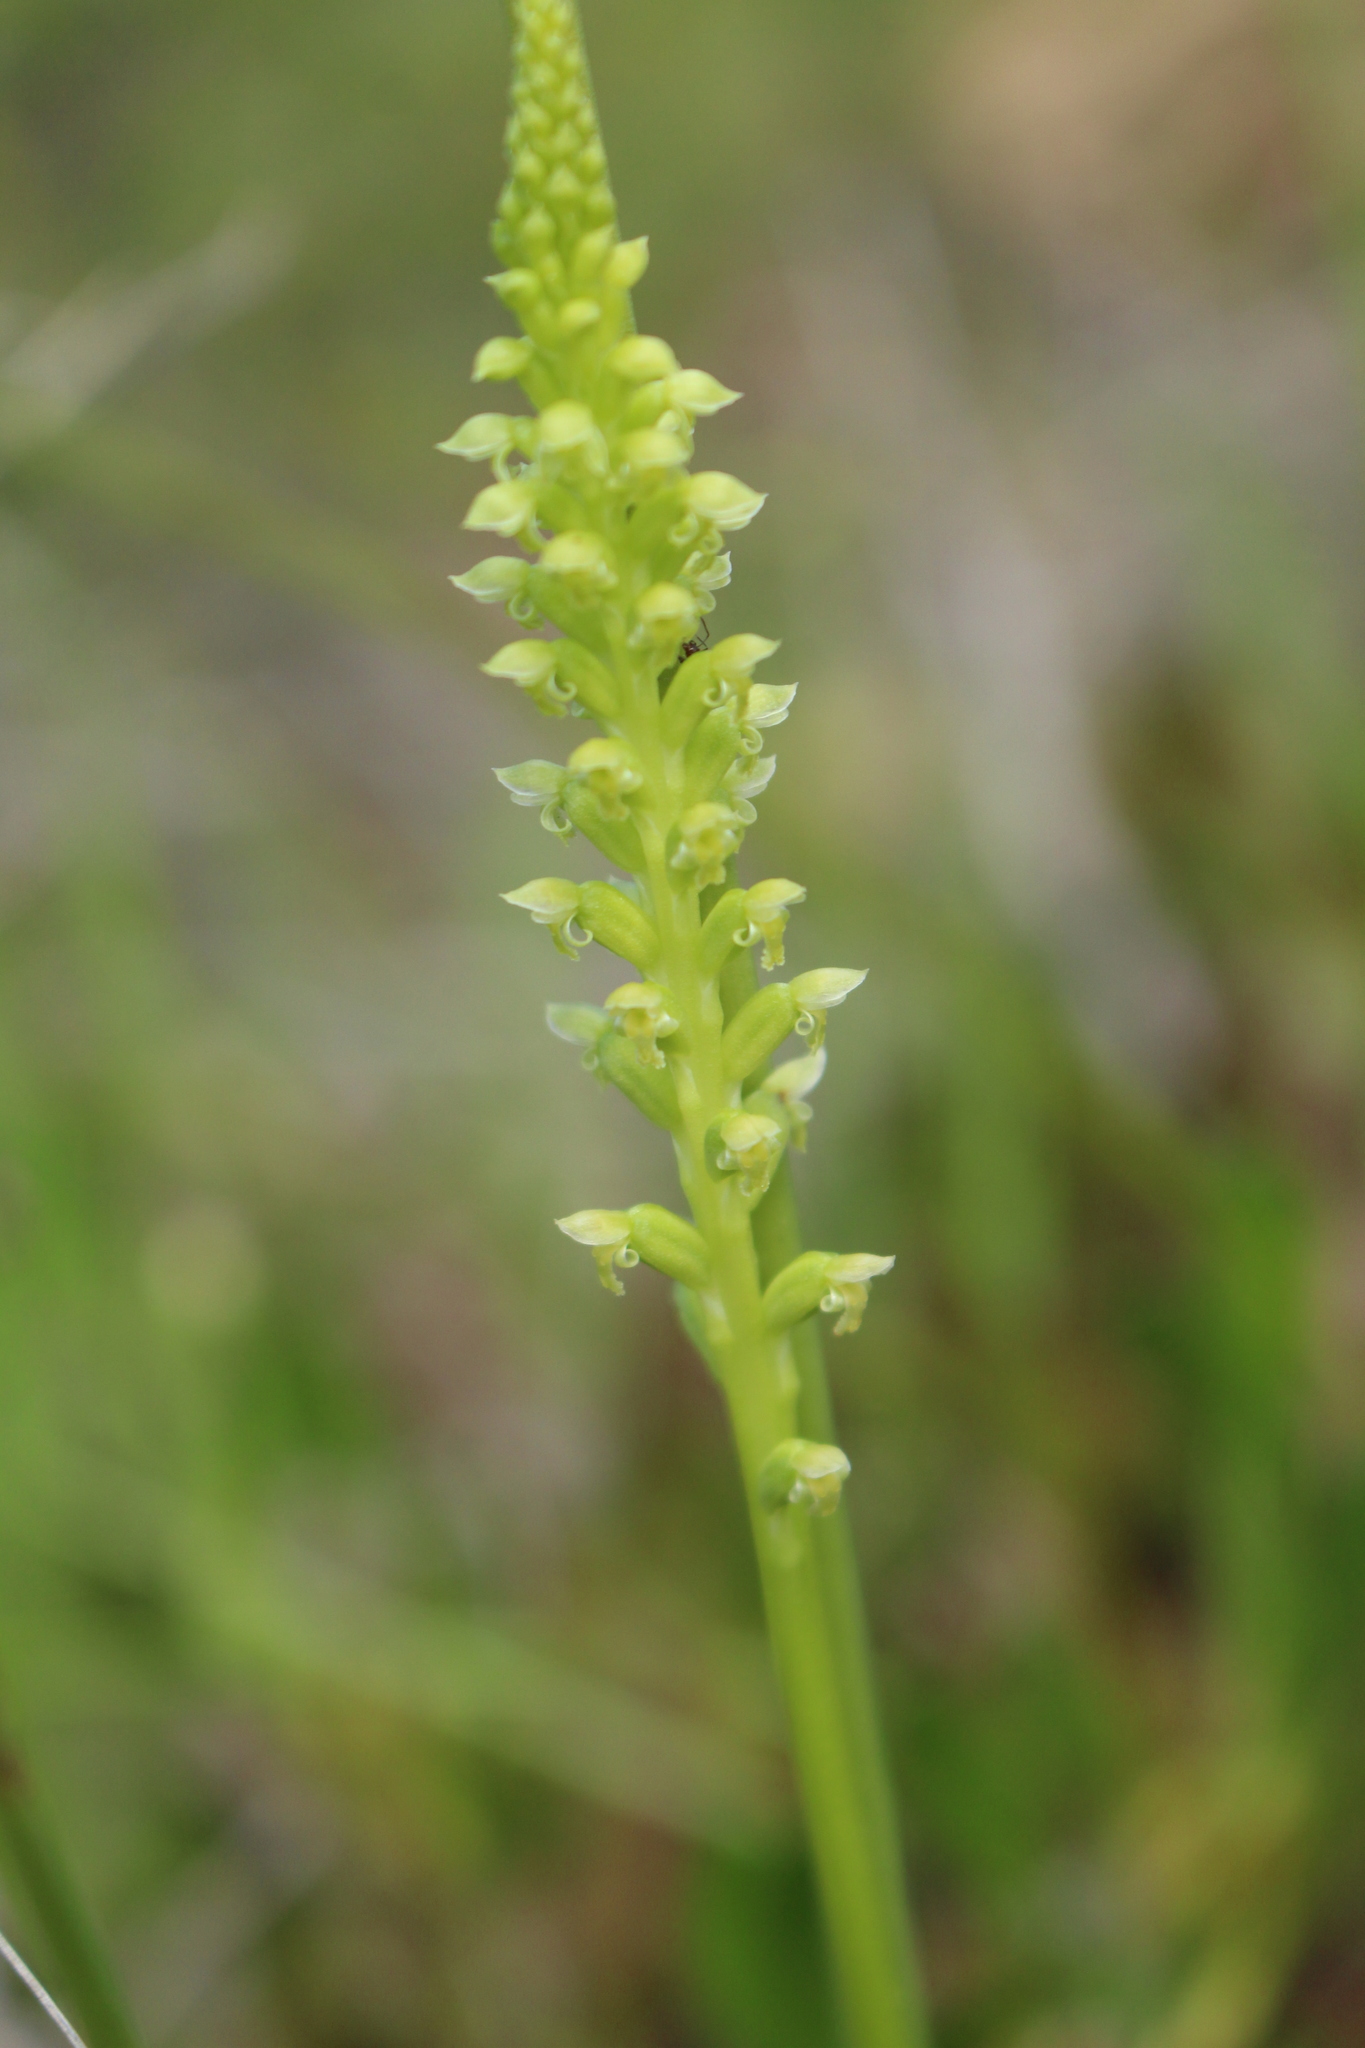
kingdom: Plantae
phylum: Tracheophyta
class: Liliopsida
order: Asparagales
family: Orchidaceae
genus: Microtis
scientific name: Microtis media
